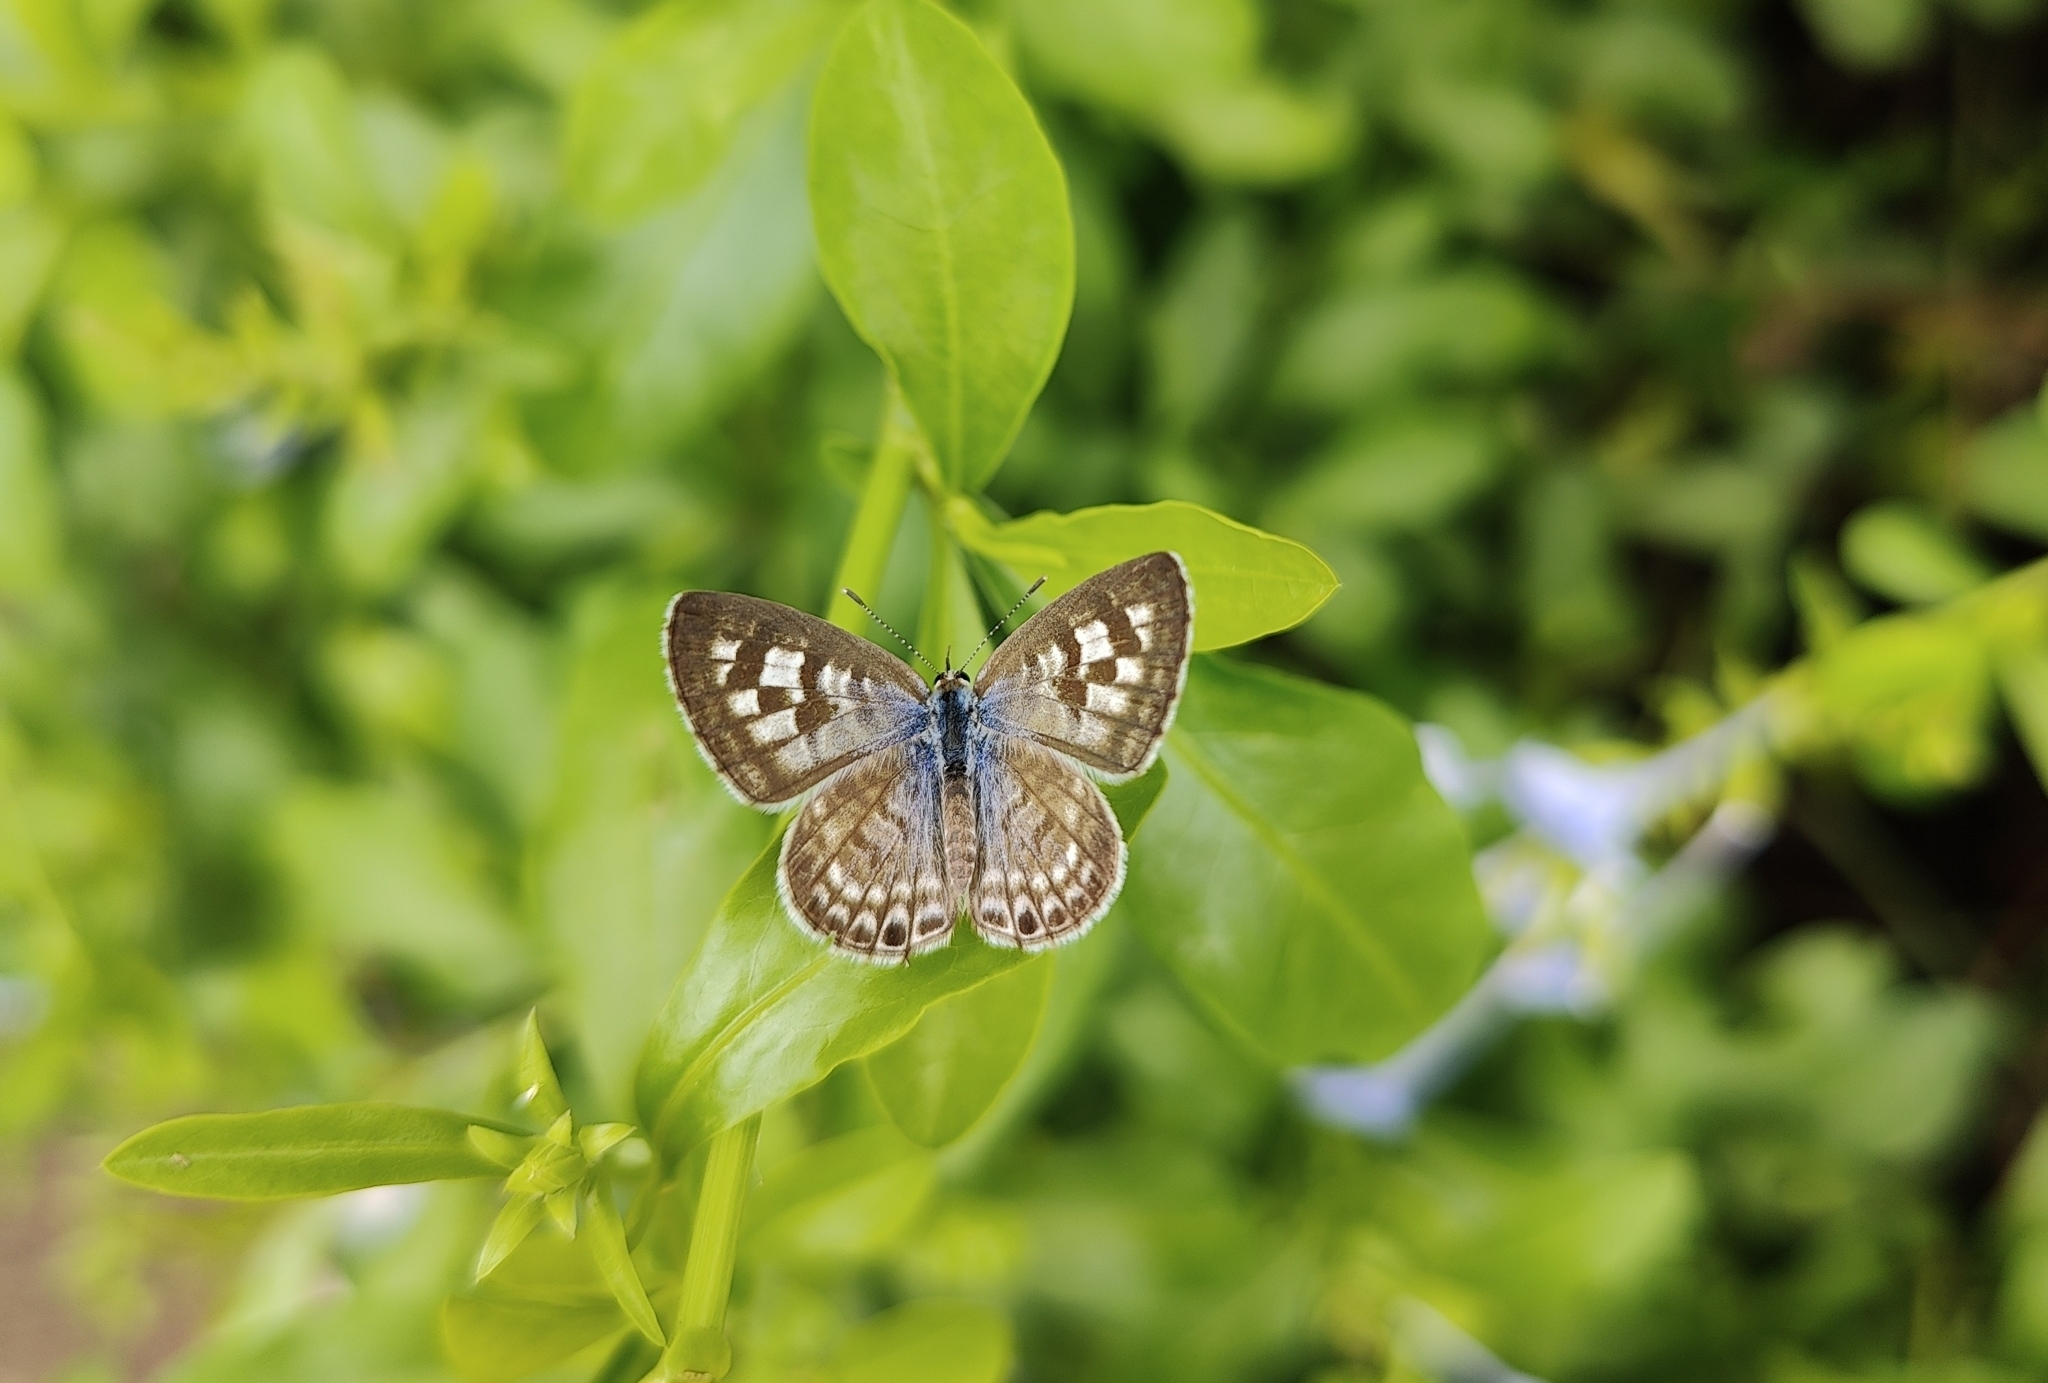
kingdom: Animalia
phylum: Arthropoda
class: Insecta
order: Lepidoptera
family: Lycaenidae
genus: Leptotes
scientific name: Leptotes plinius
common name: Zebra blue
